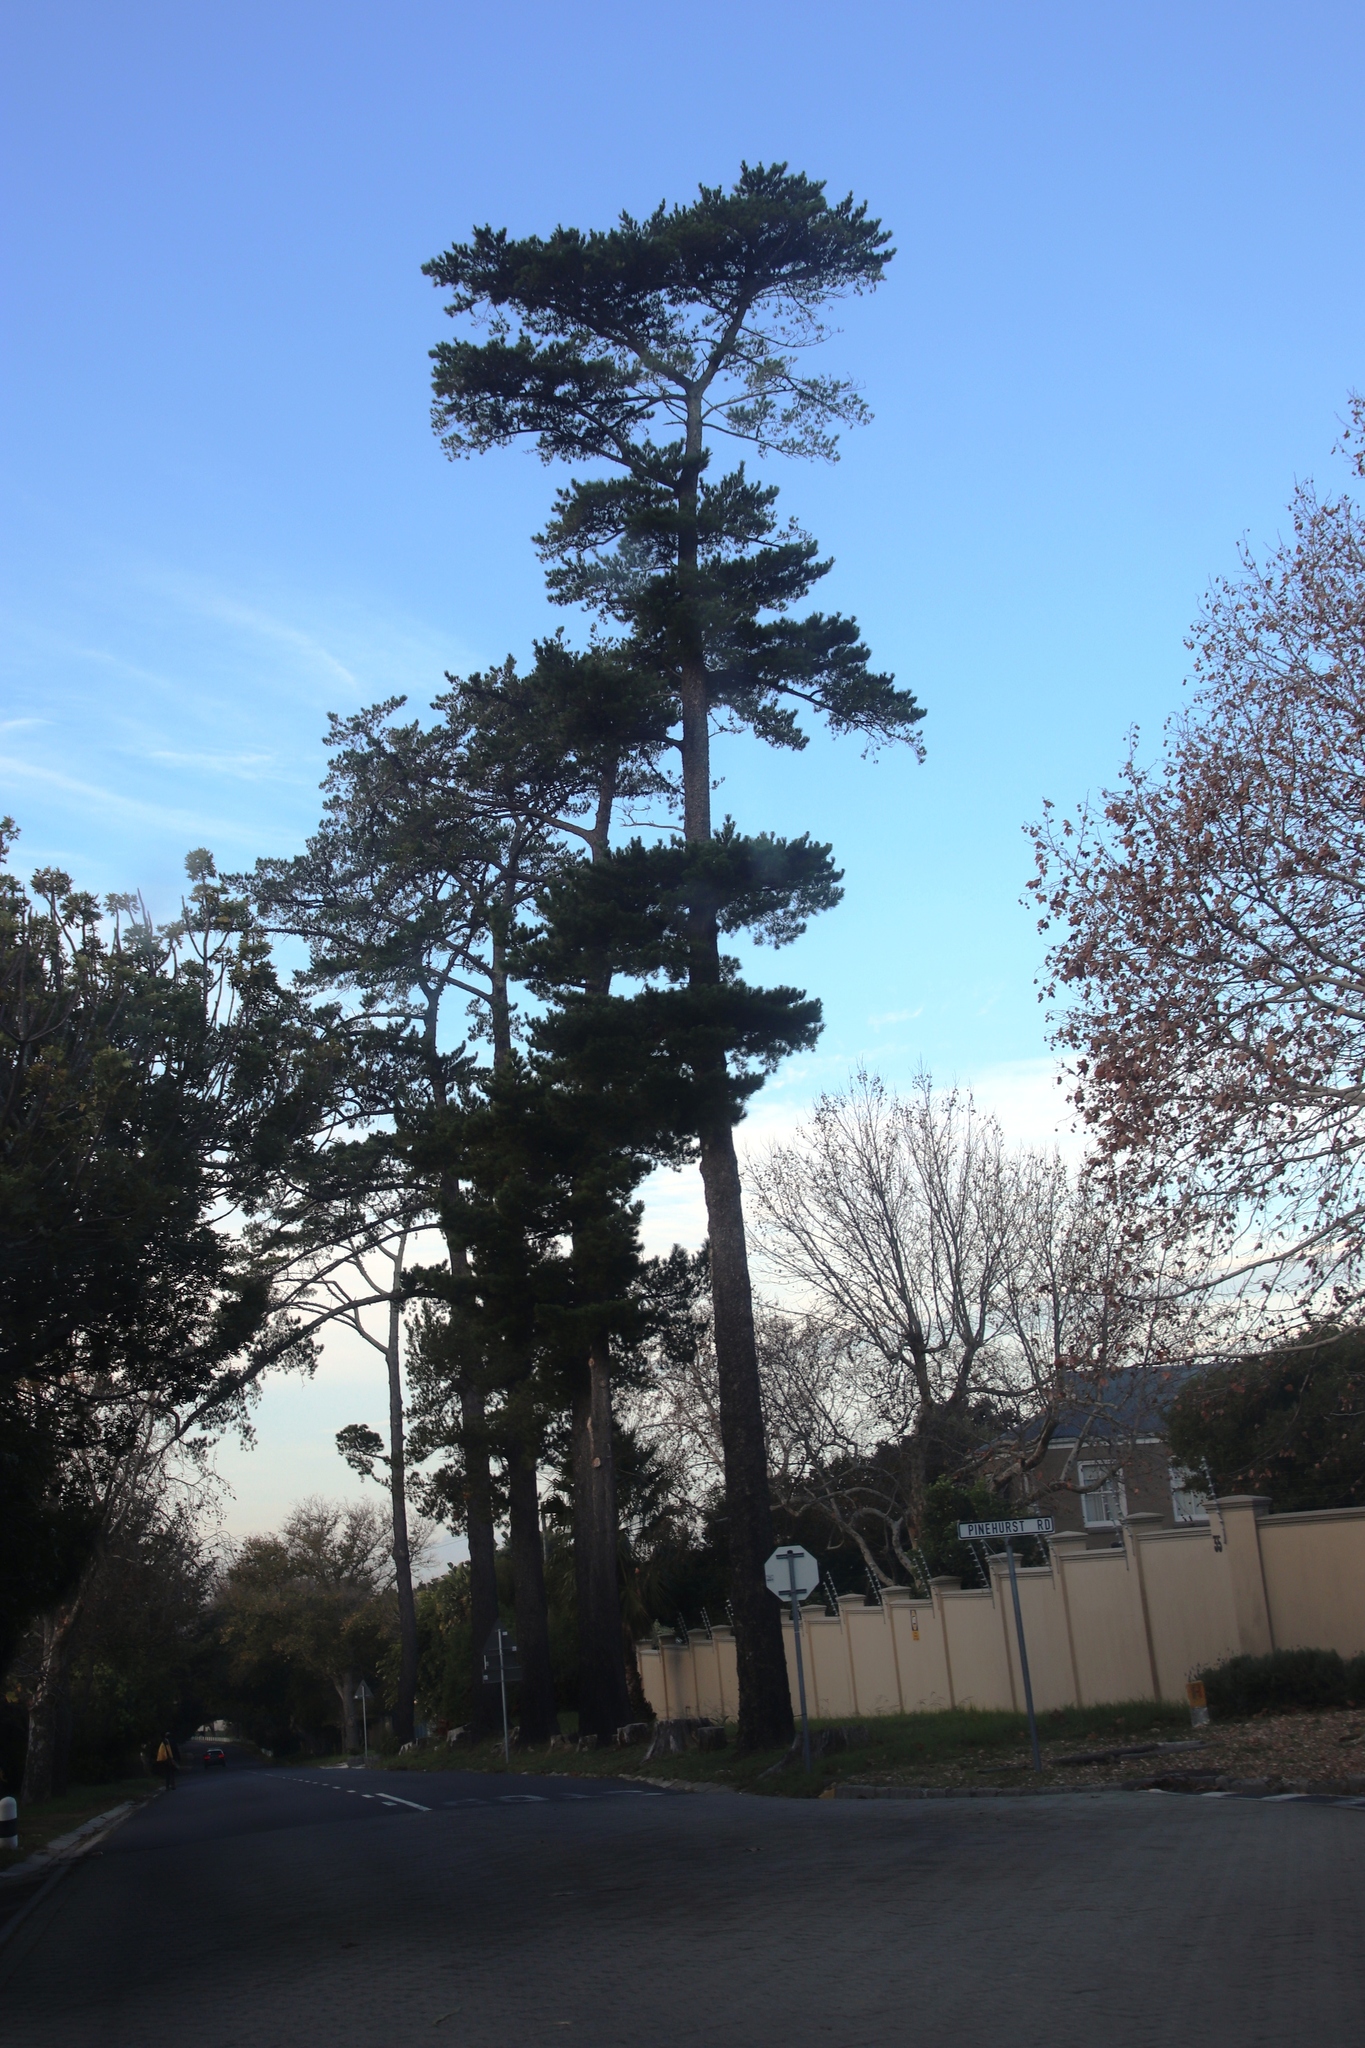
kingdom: Plantae
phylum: Tracheophyta
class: Pinopsida
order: Pinales
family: Pinaceae
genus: Pinus
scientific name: Pinus radiata
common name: Monterey pine
